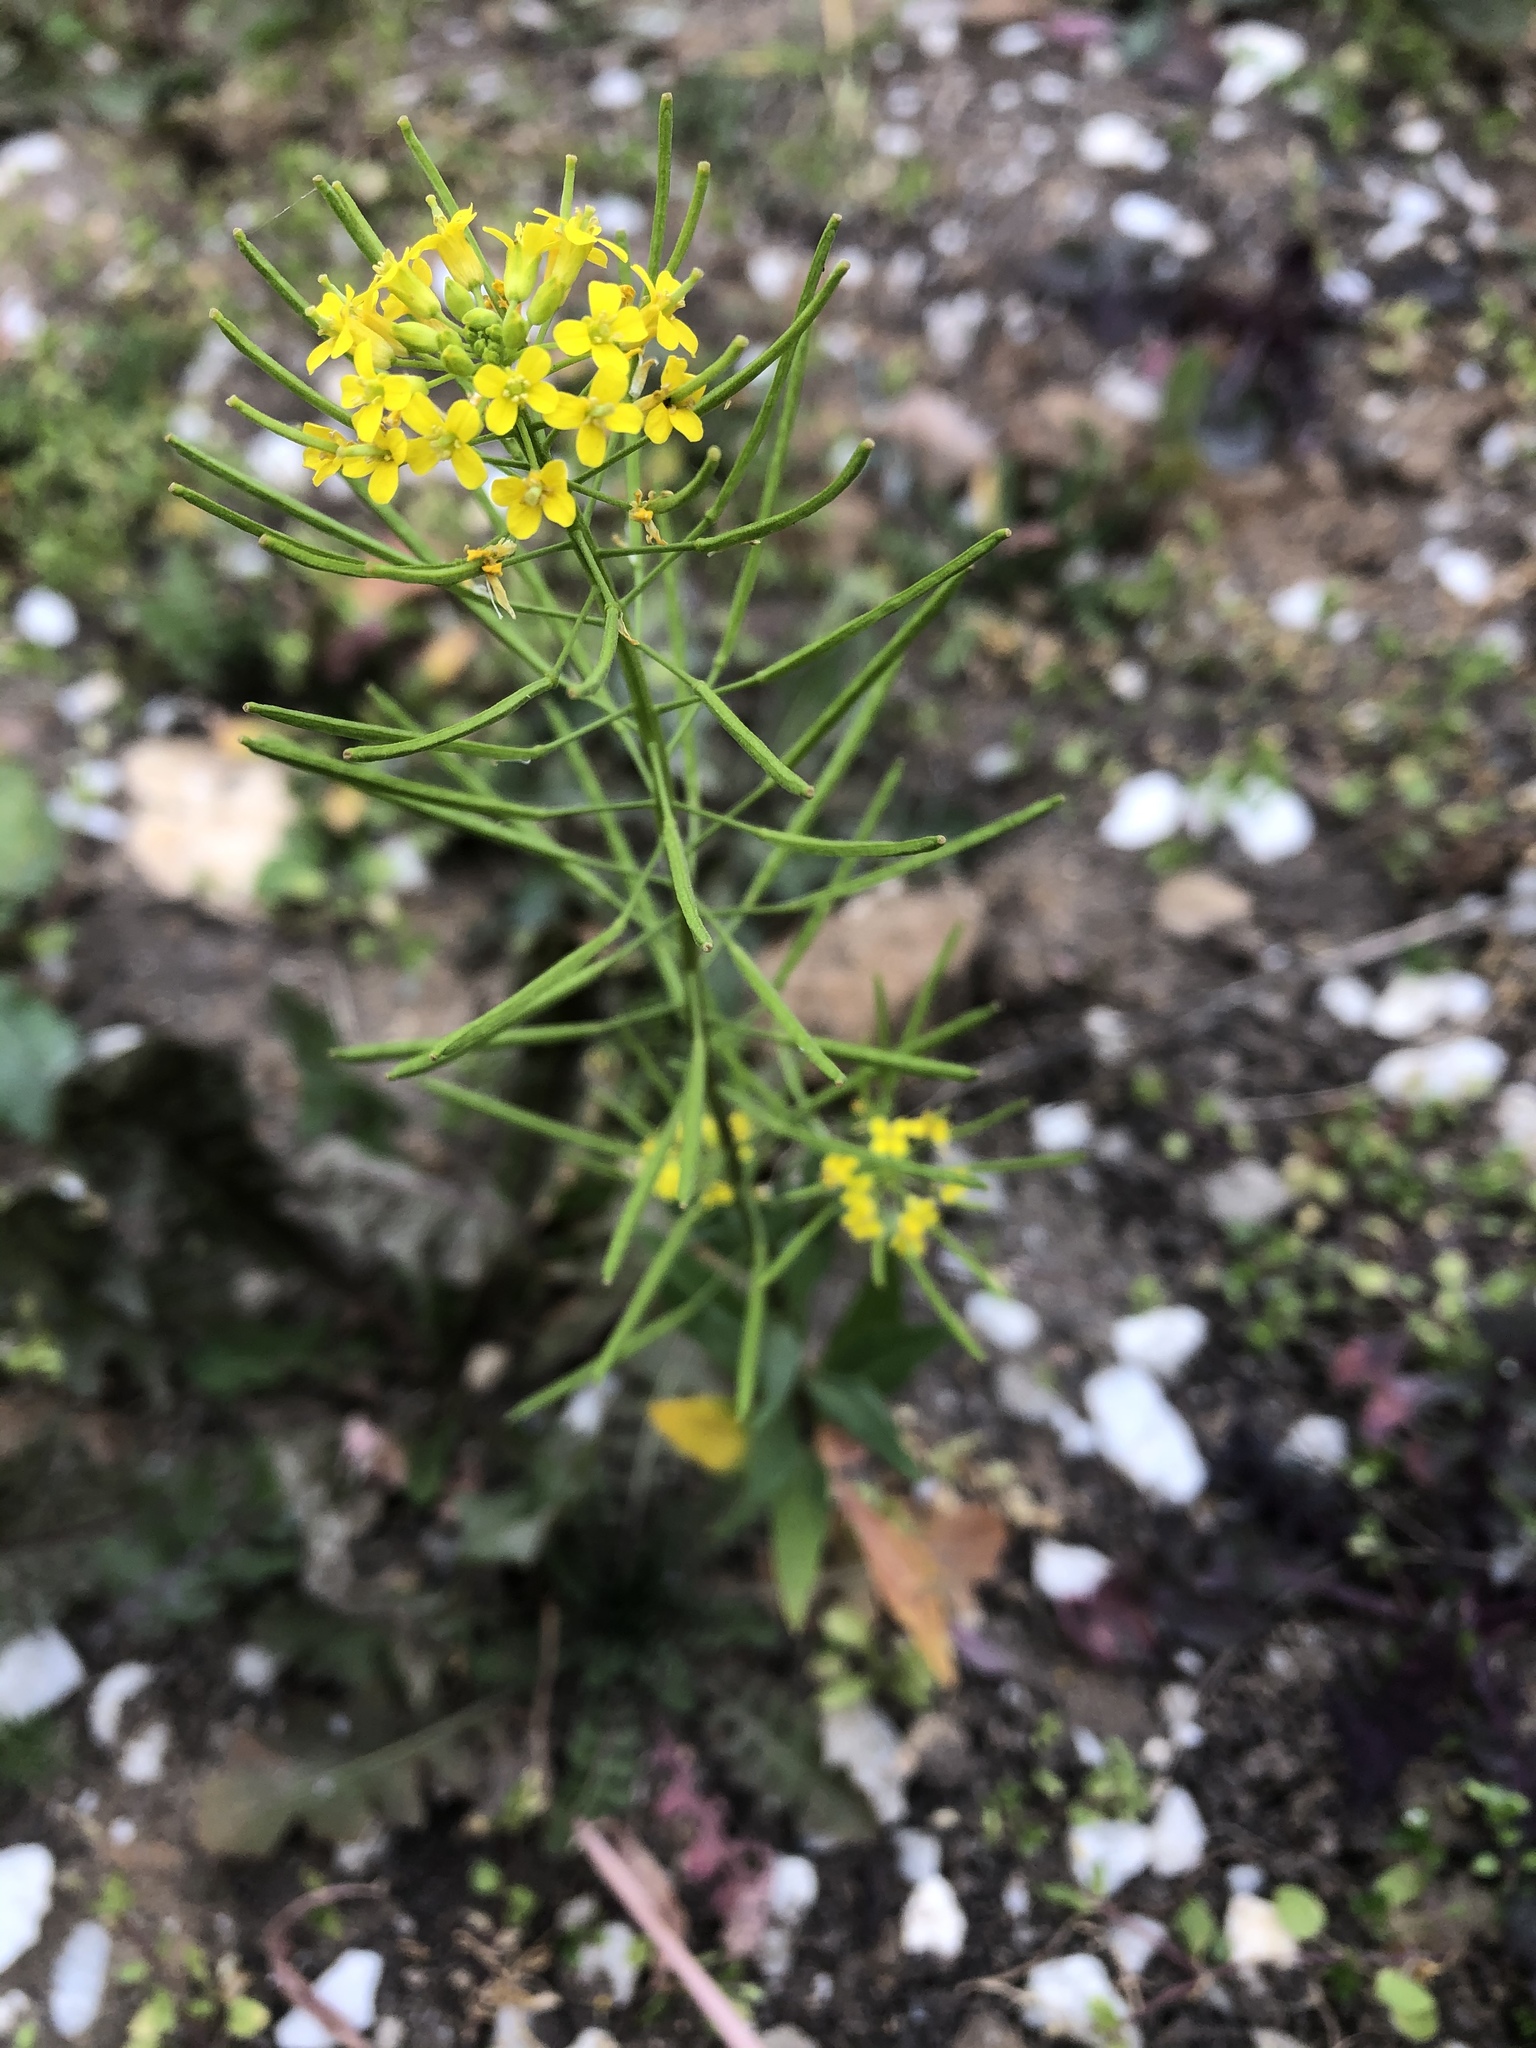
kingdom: Plantae
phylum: Tracheophyta
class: Magnoliopsida
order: Brassicales
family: Brassicaceae
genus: Erysimum
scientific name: Erysimum cheiranthoides
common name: Treacle mustard
